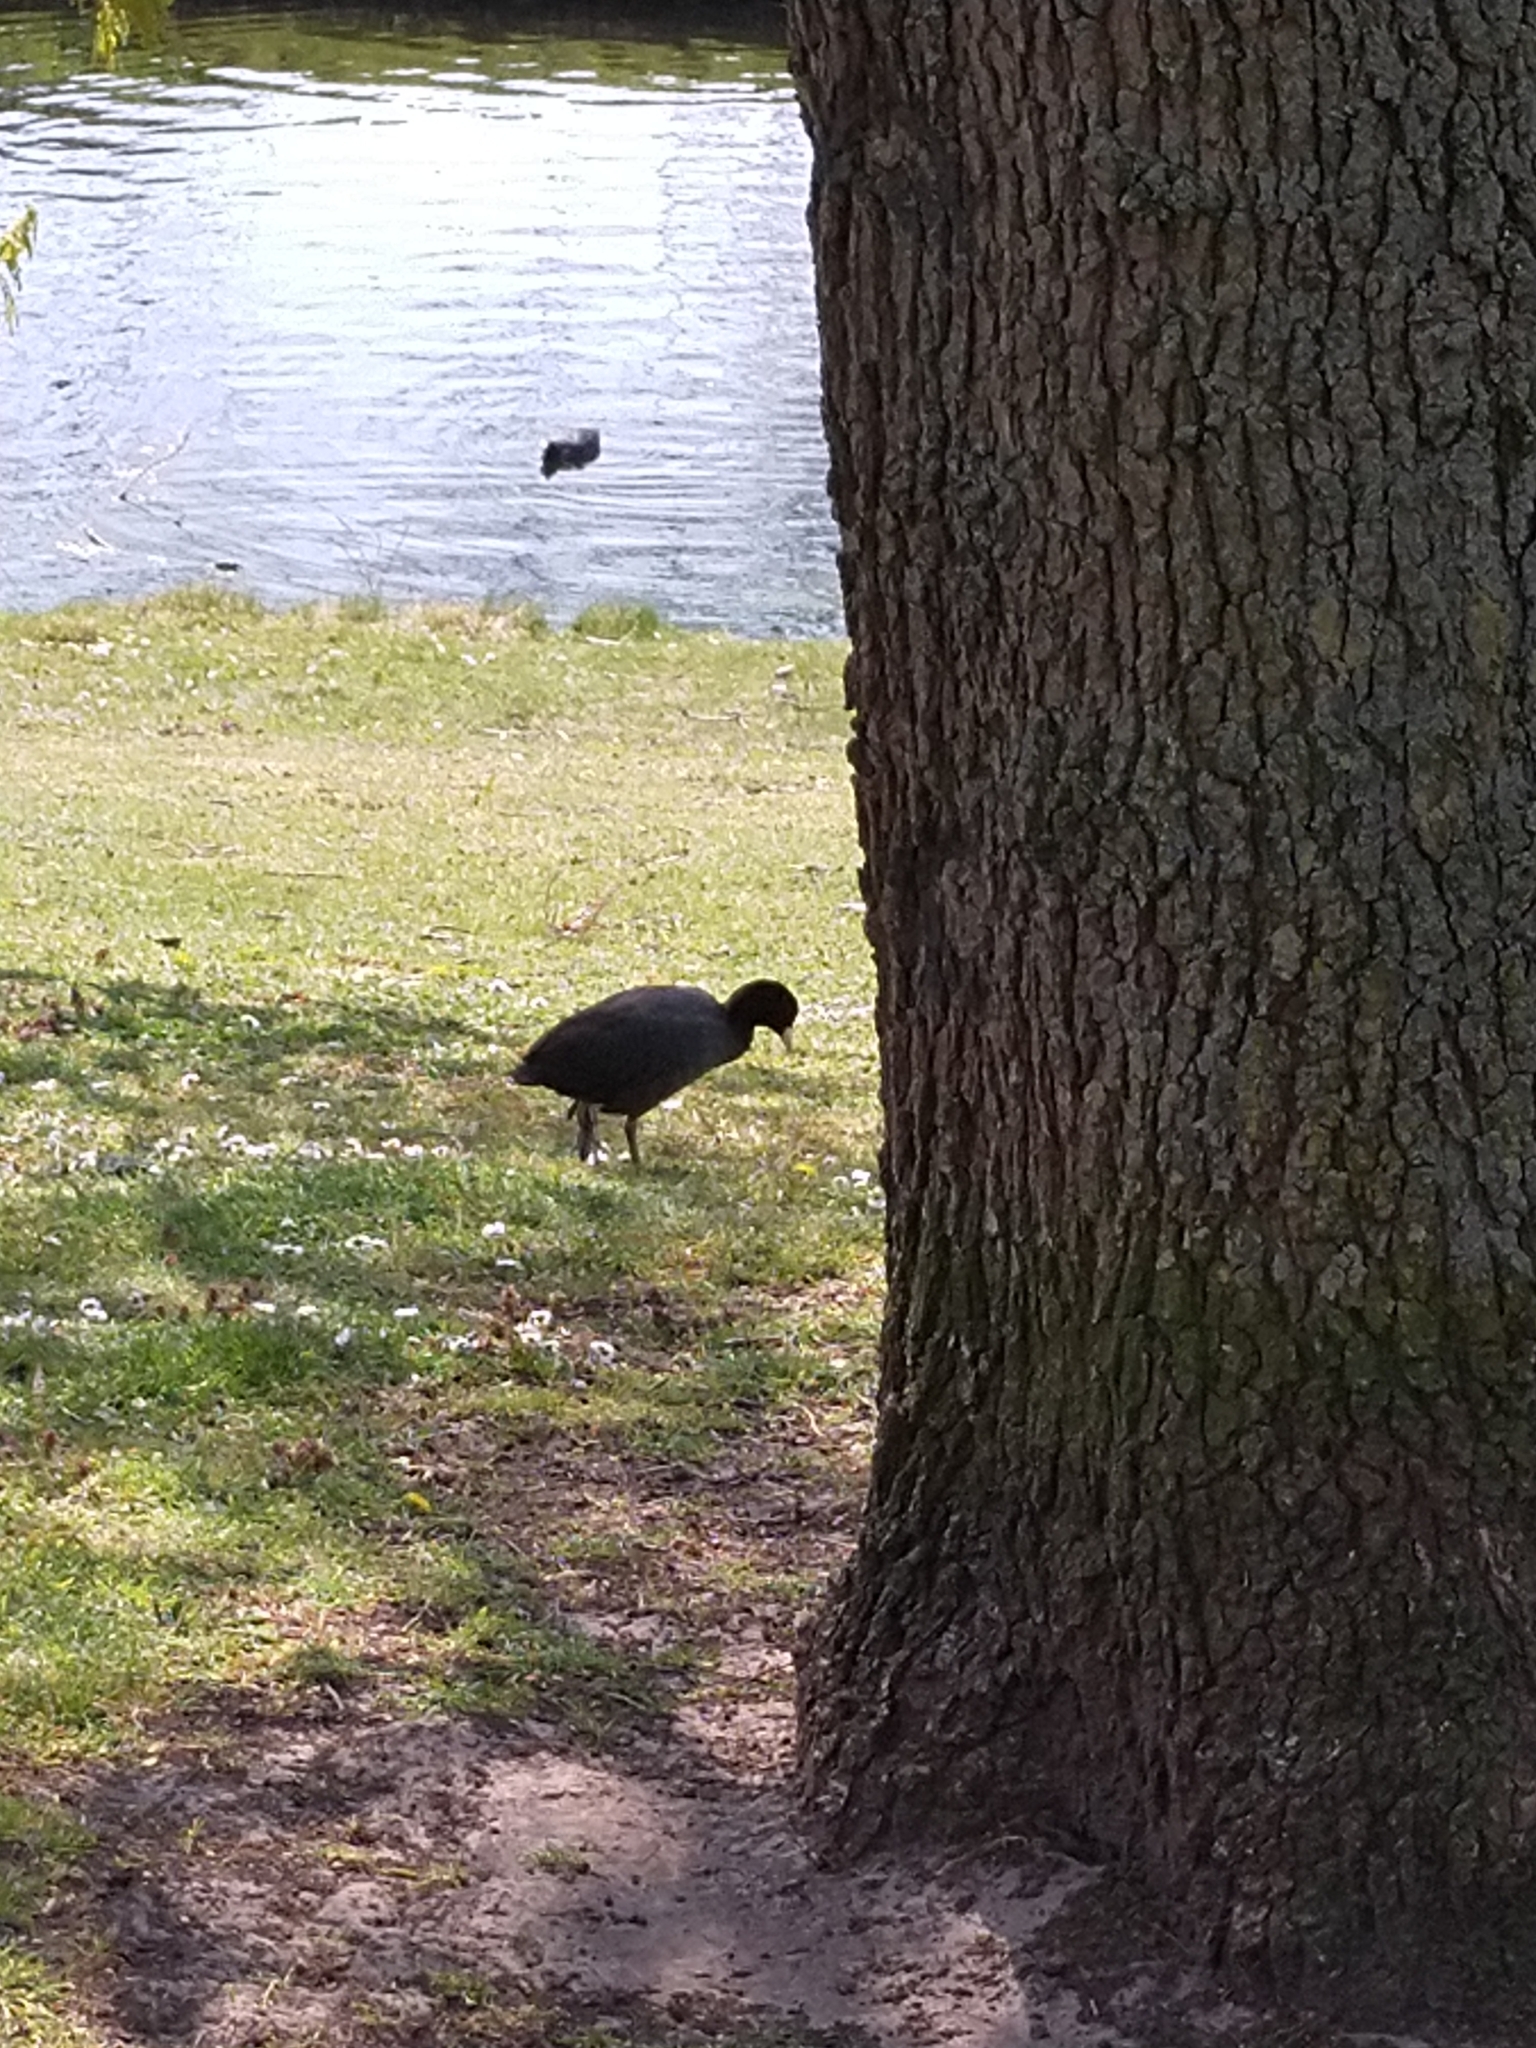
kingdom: Animalia
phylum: Chordata
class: Aves
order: Gruiformes
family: Rallidae
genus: Fulica
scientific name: Fulica atra
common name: Eurasian coot
